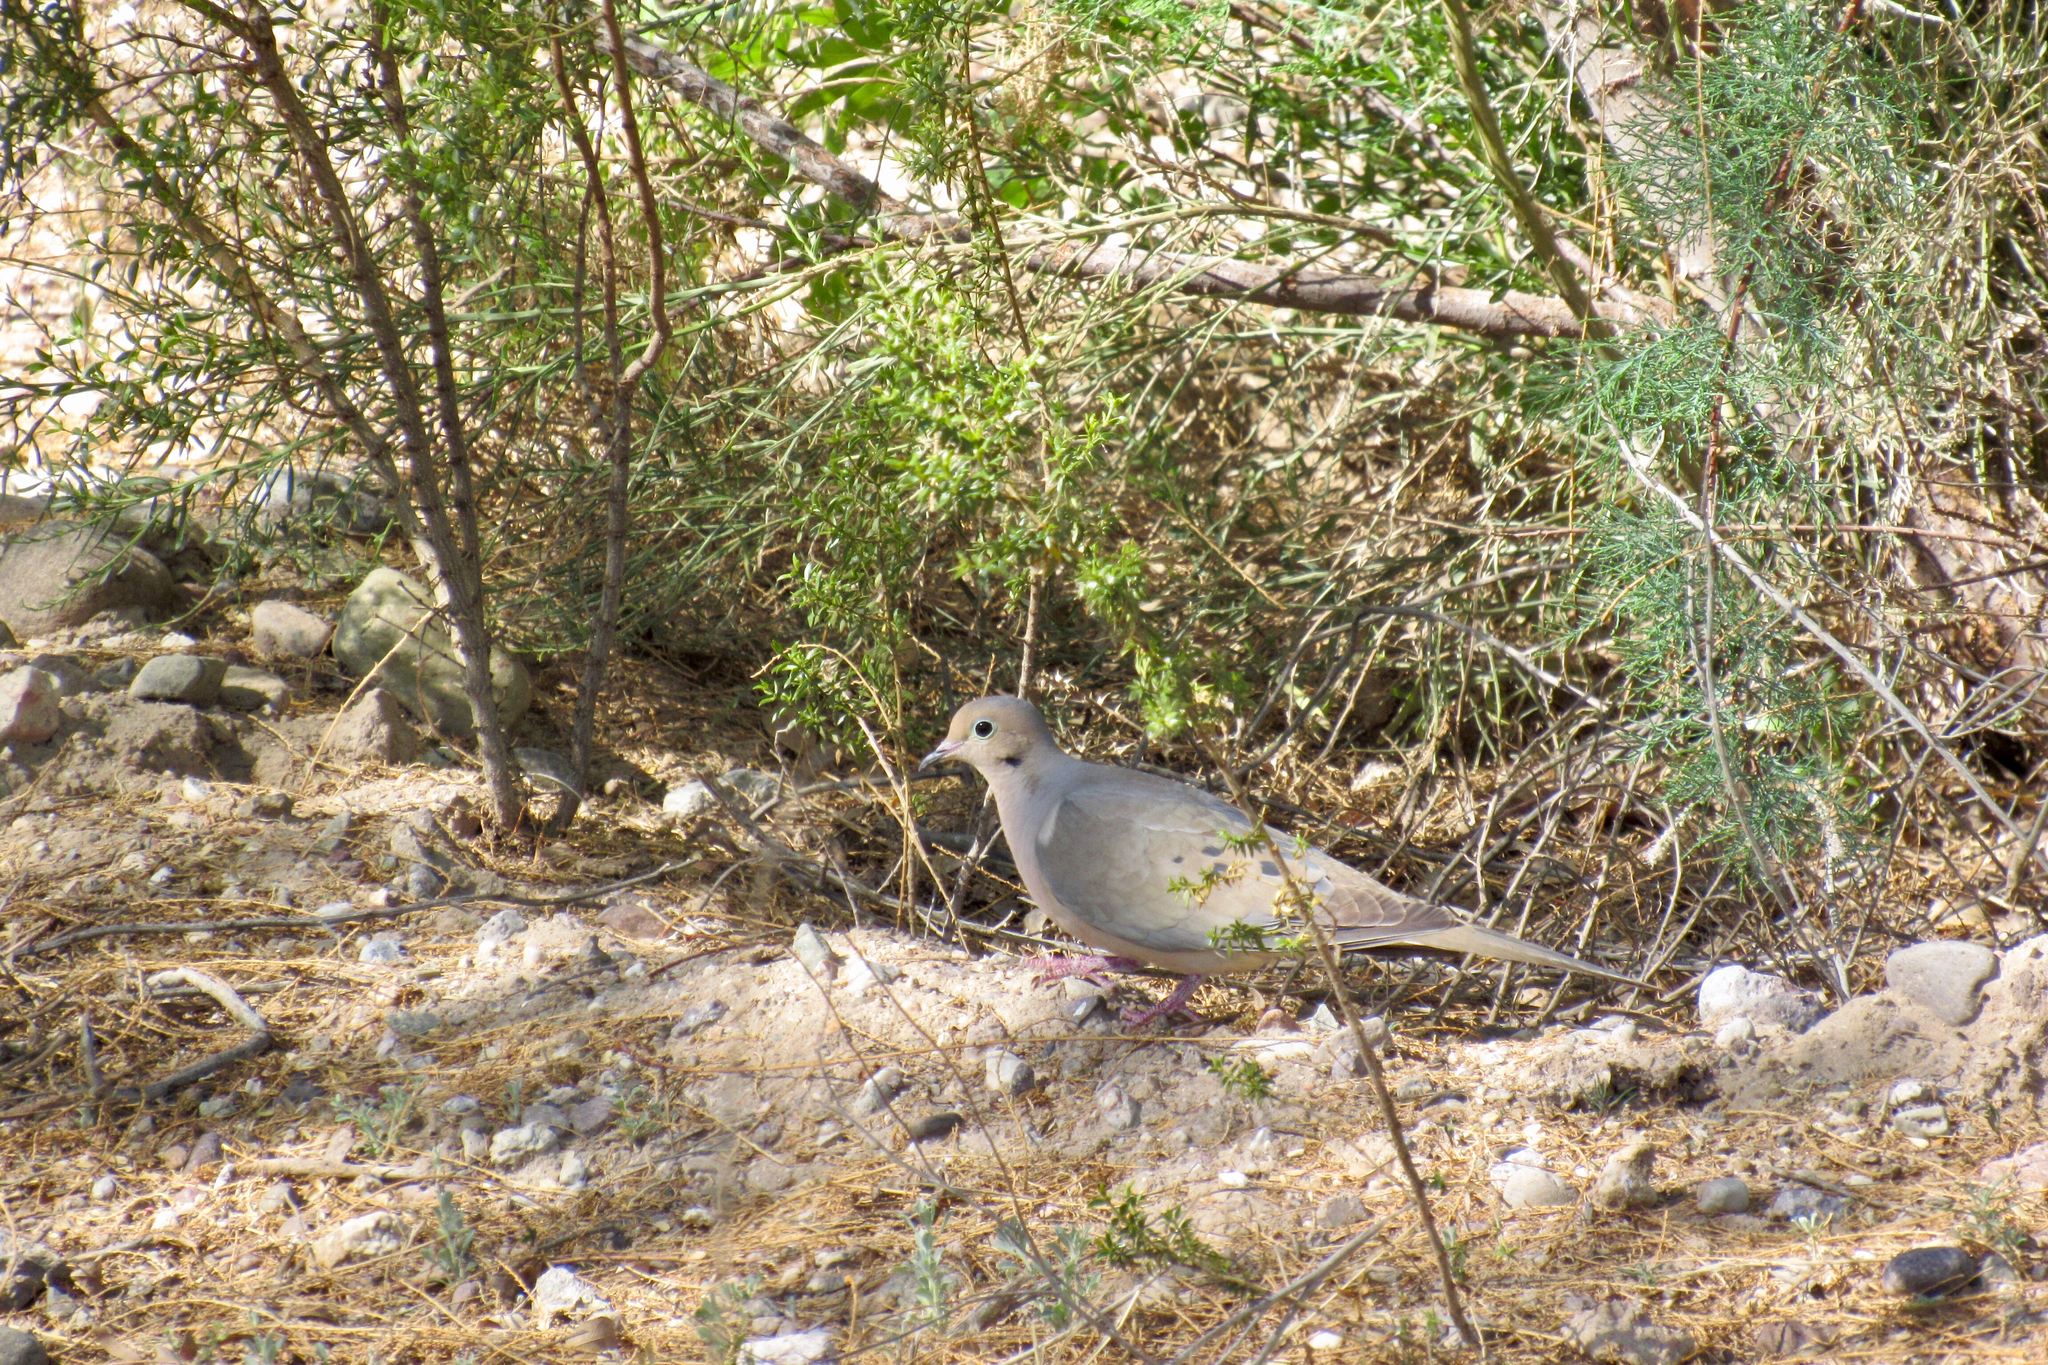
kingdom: Animalia
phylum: Chordata
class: Aves
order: Columbiformes
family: Columbidae
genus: Zenaida
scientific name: Zenaida macroura
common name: Mourning dove
